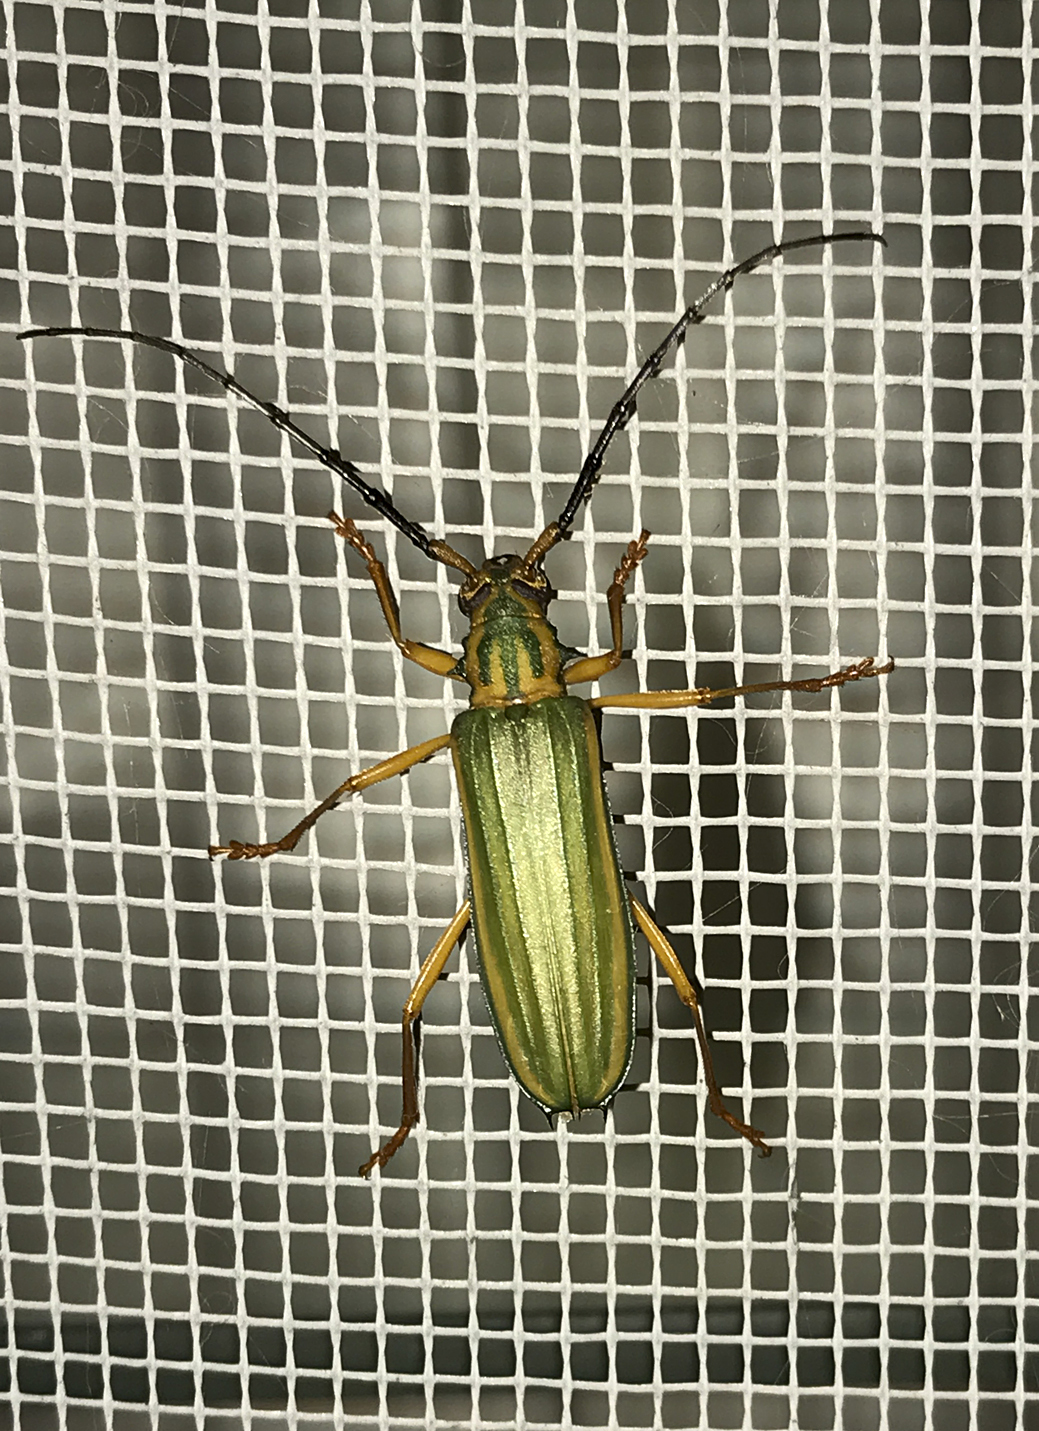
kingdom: Animalia
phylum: Arthropoda
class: Insecta
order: Coleoptera
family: Cerambycidae
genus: Chlorida
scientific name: Chlorida festiva
